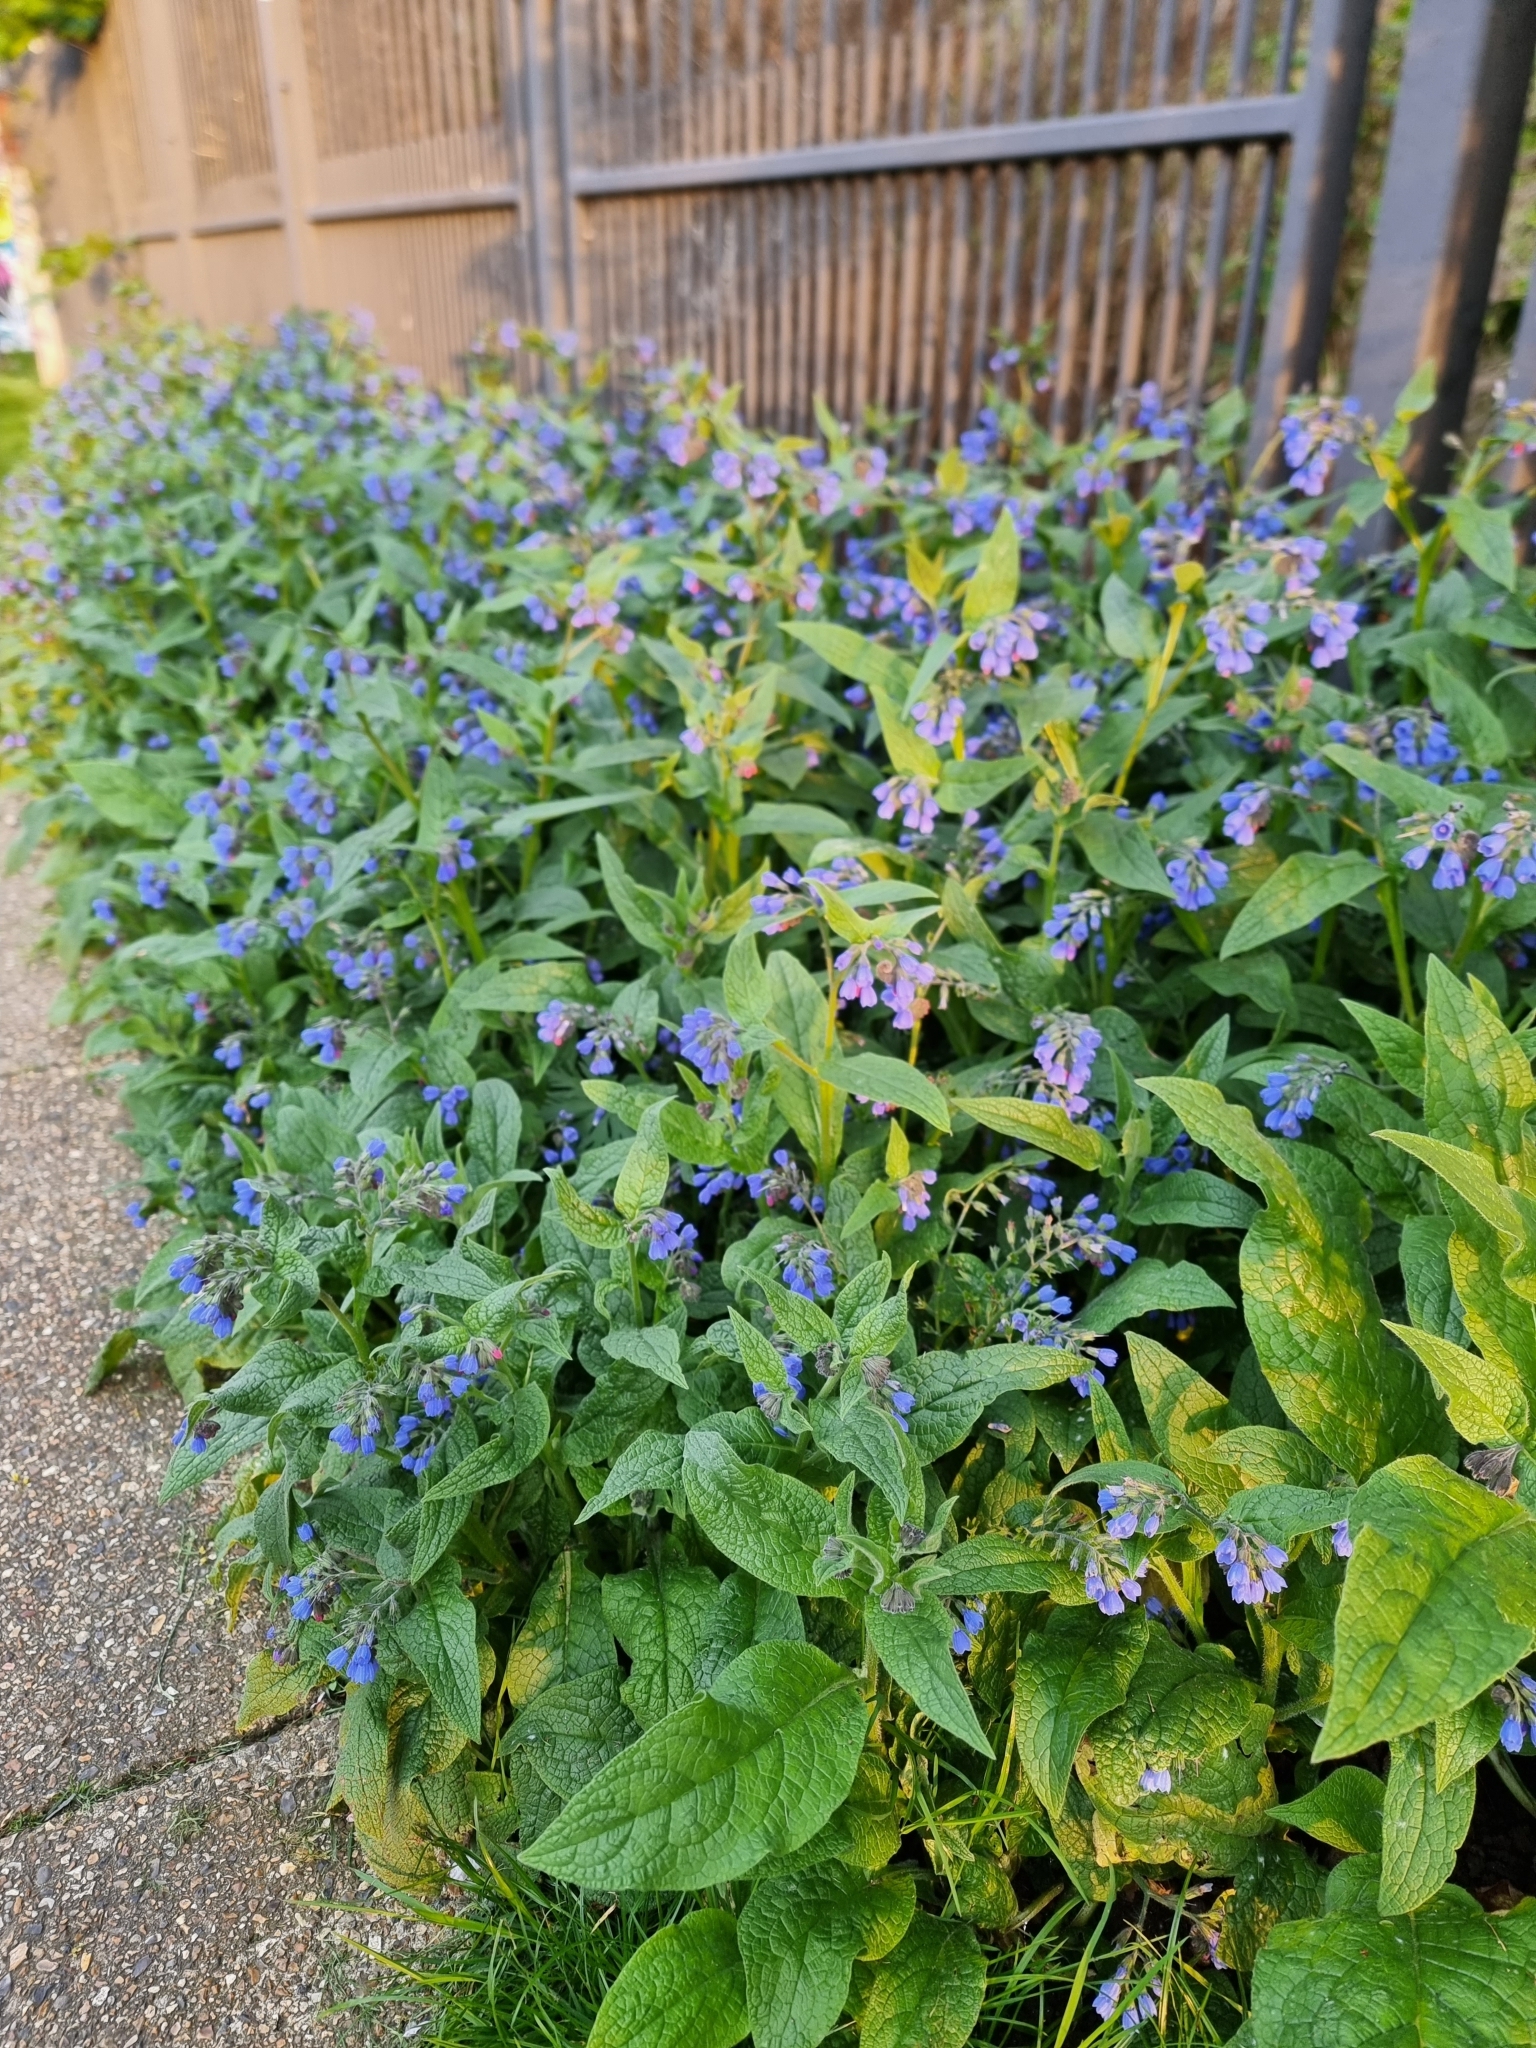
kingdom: Plantae
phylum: Tracheophyta
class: Magnoliopsida
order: Boraginales
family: Boraginaceae
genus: Symphytum
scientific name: Symphytum caucasicum
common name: Caucasian comfrey
